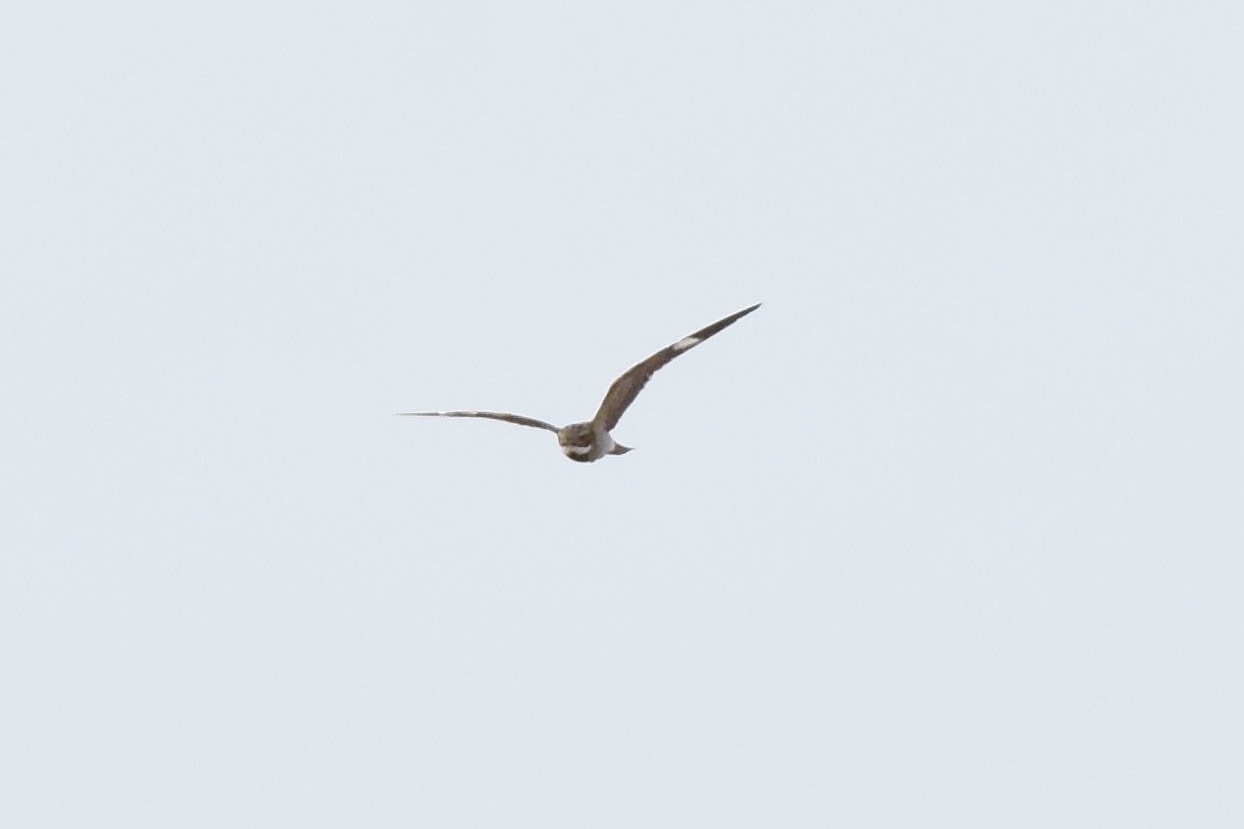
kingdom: Animalia
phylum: Chordata
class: Aves
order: Caprimulgiformes
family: Caprimulgidae
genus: Chordeiles
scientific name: Chordeiles minor
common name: Common nighthawk
